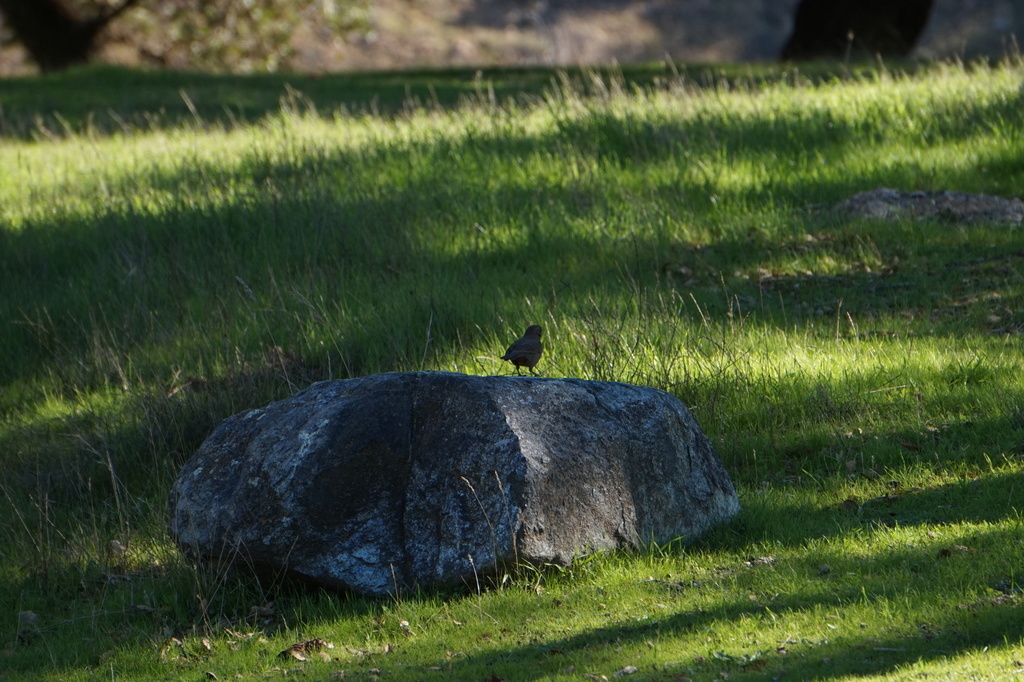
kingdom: Animalia
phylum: Chordata
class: Aves
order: Passeriformes
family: Passerellidae
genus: Melozone
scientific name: Melozone crissalis
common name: California towhee
